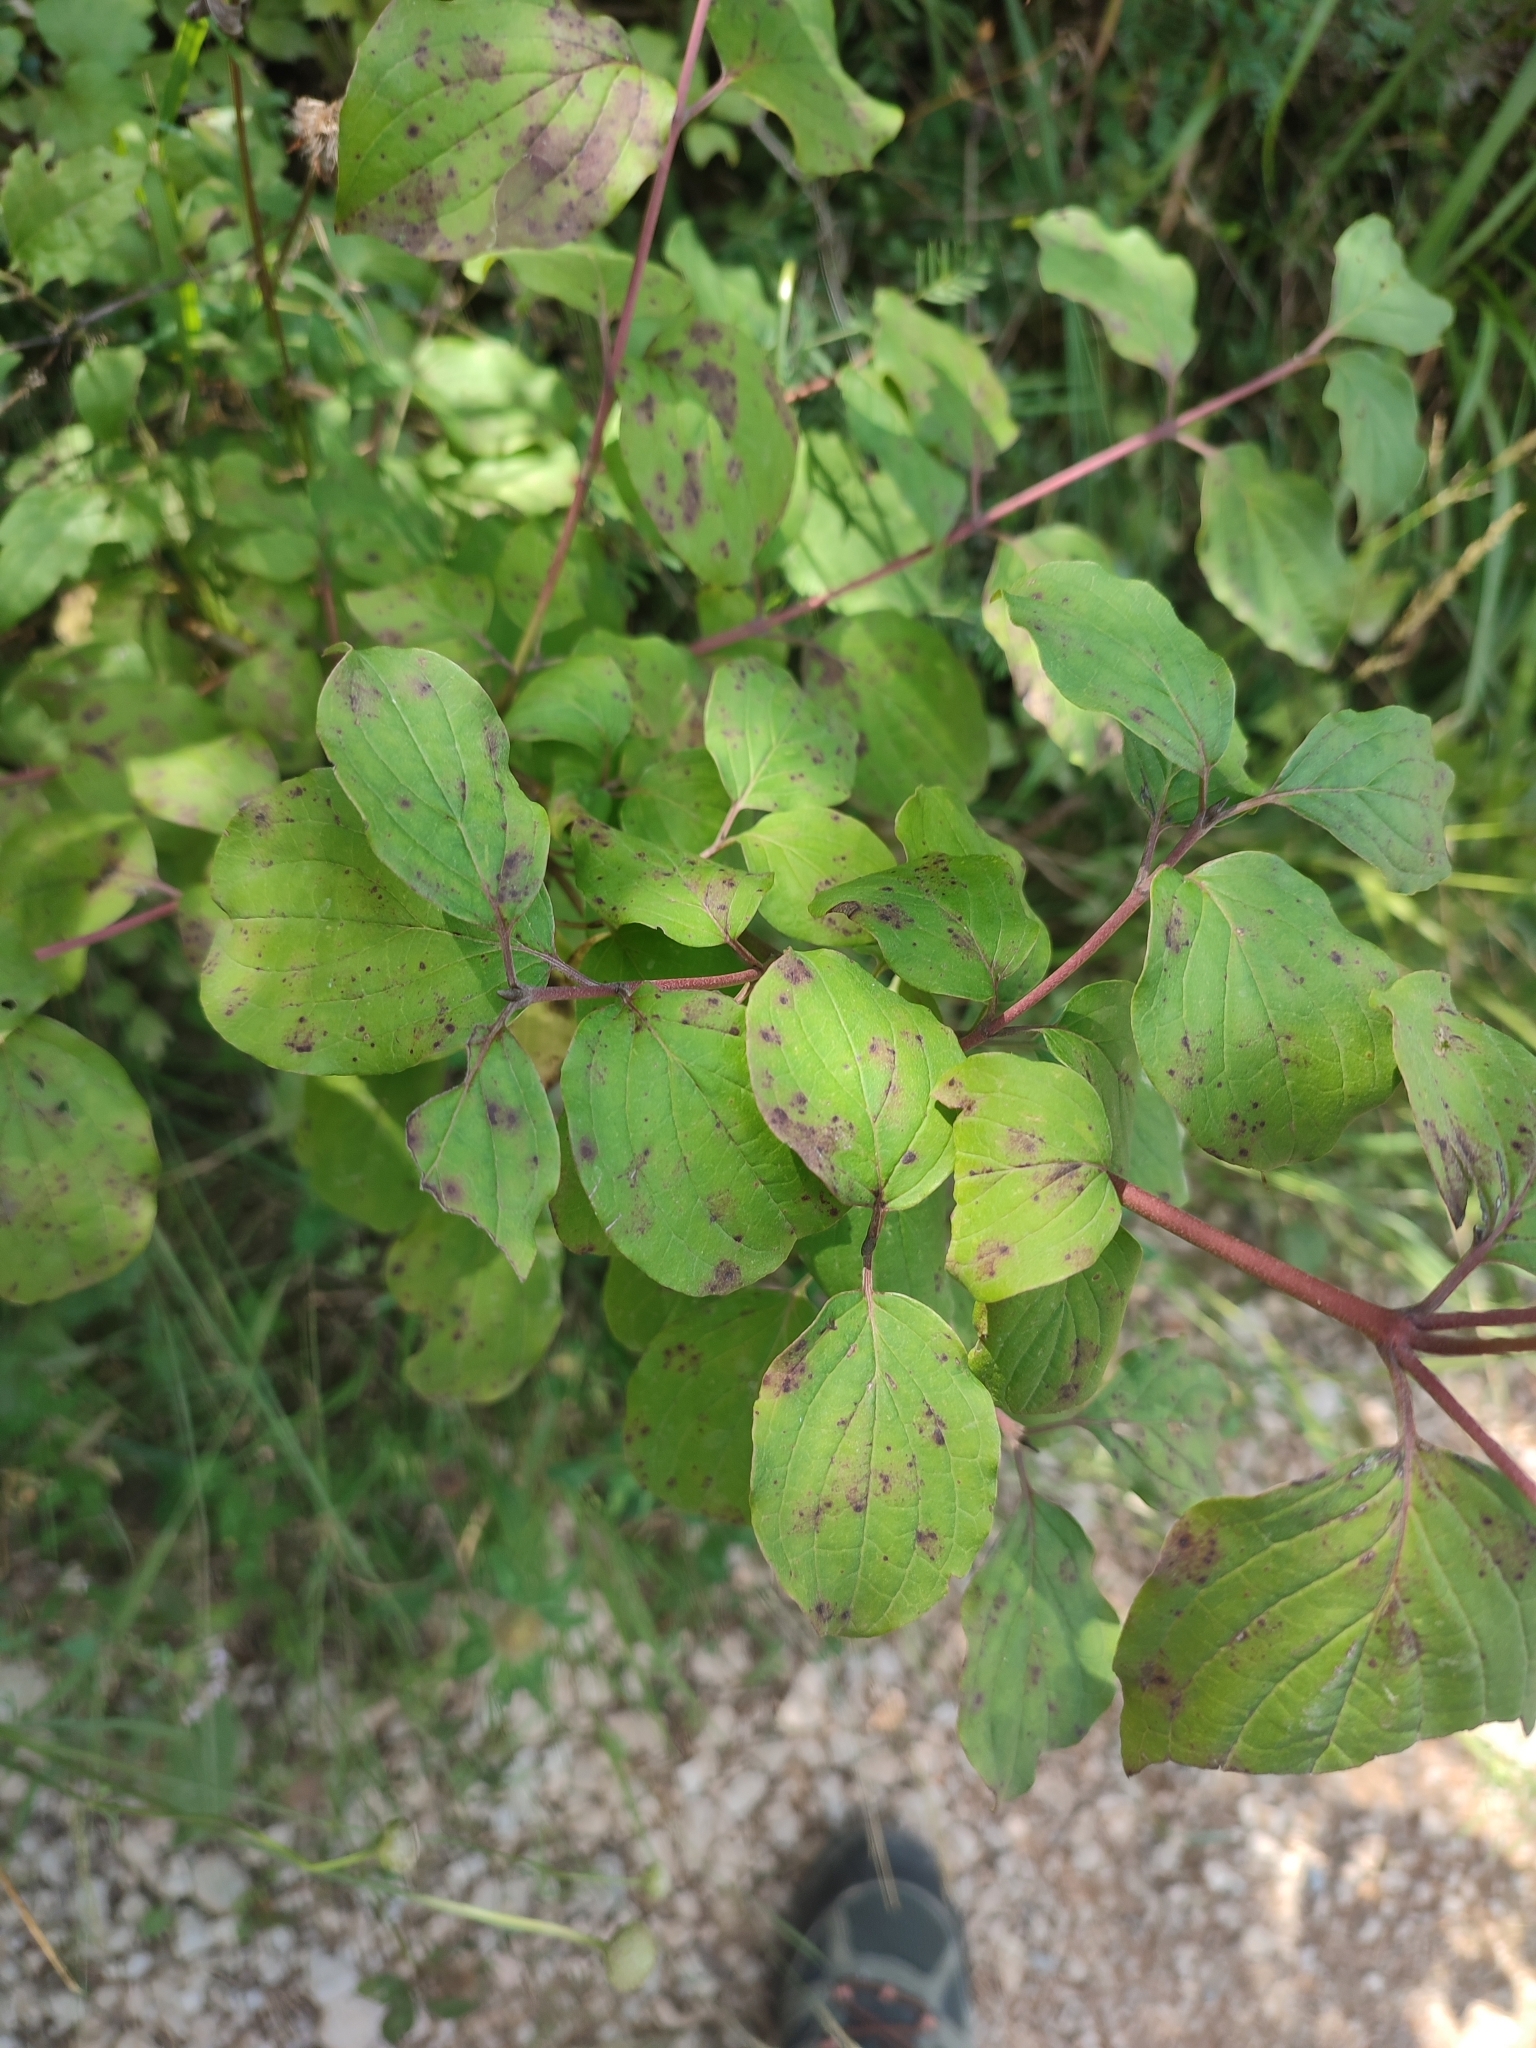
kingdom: Plantae
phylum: Tracheophyta
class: Magnoliopsida
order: Cornales
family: Cornaceae
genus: Cornus
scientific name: Cornus sanguinea
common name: Dogwood
